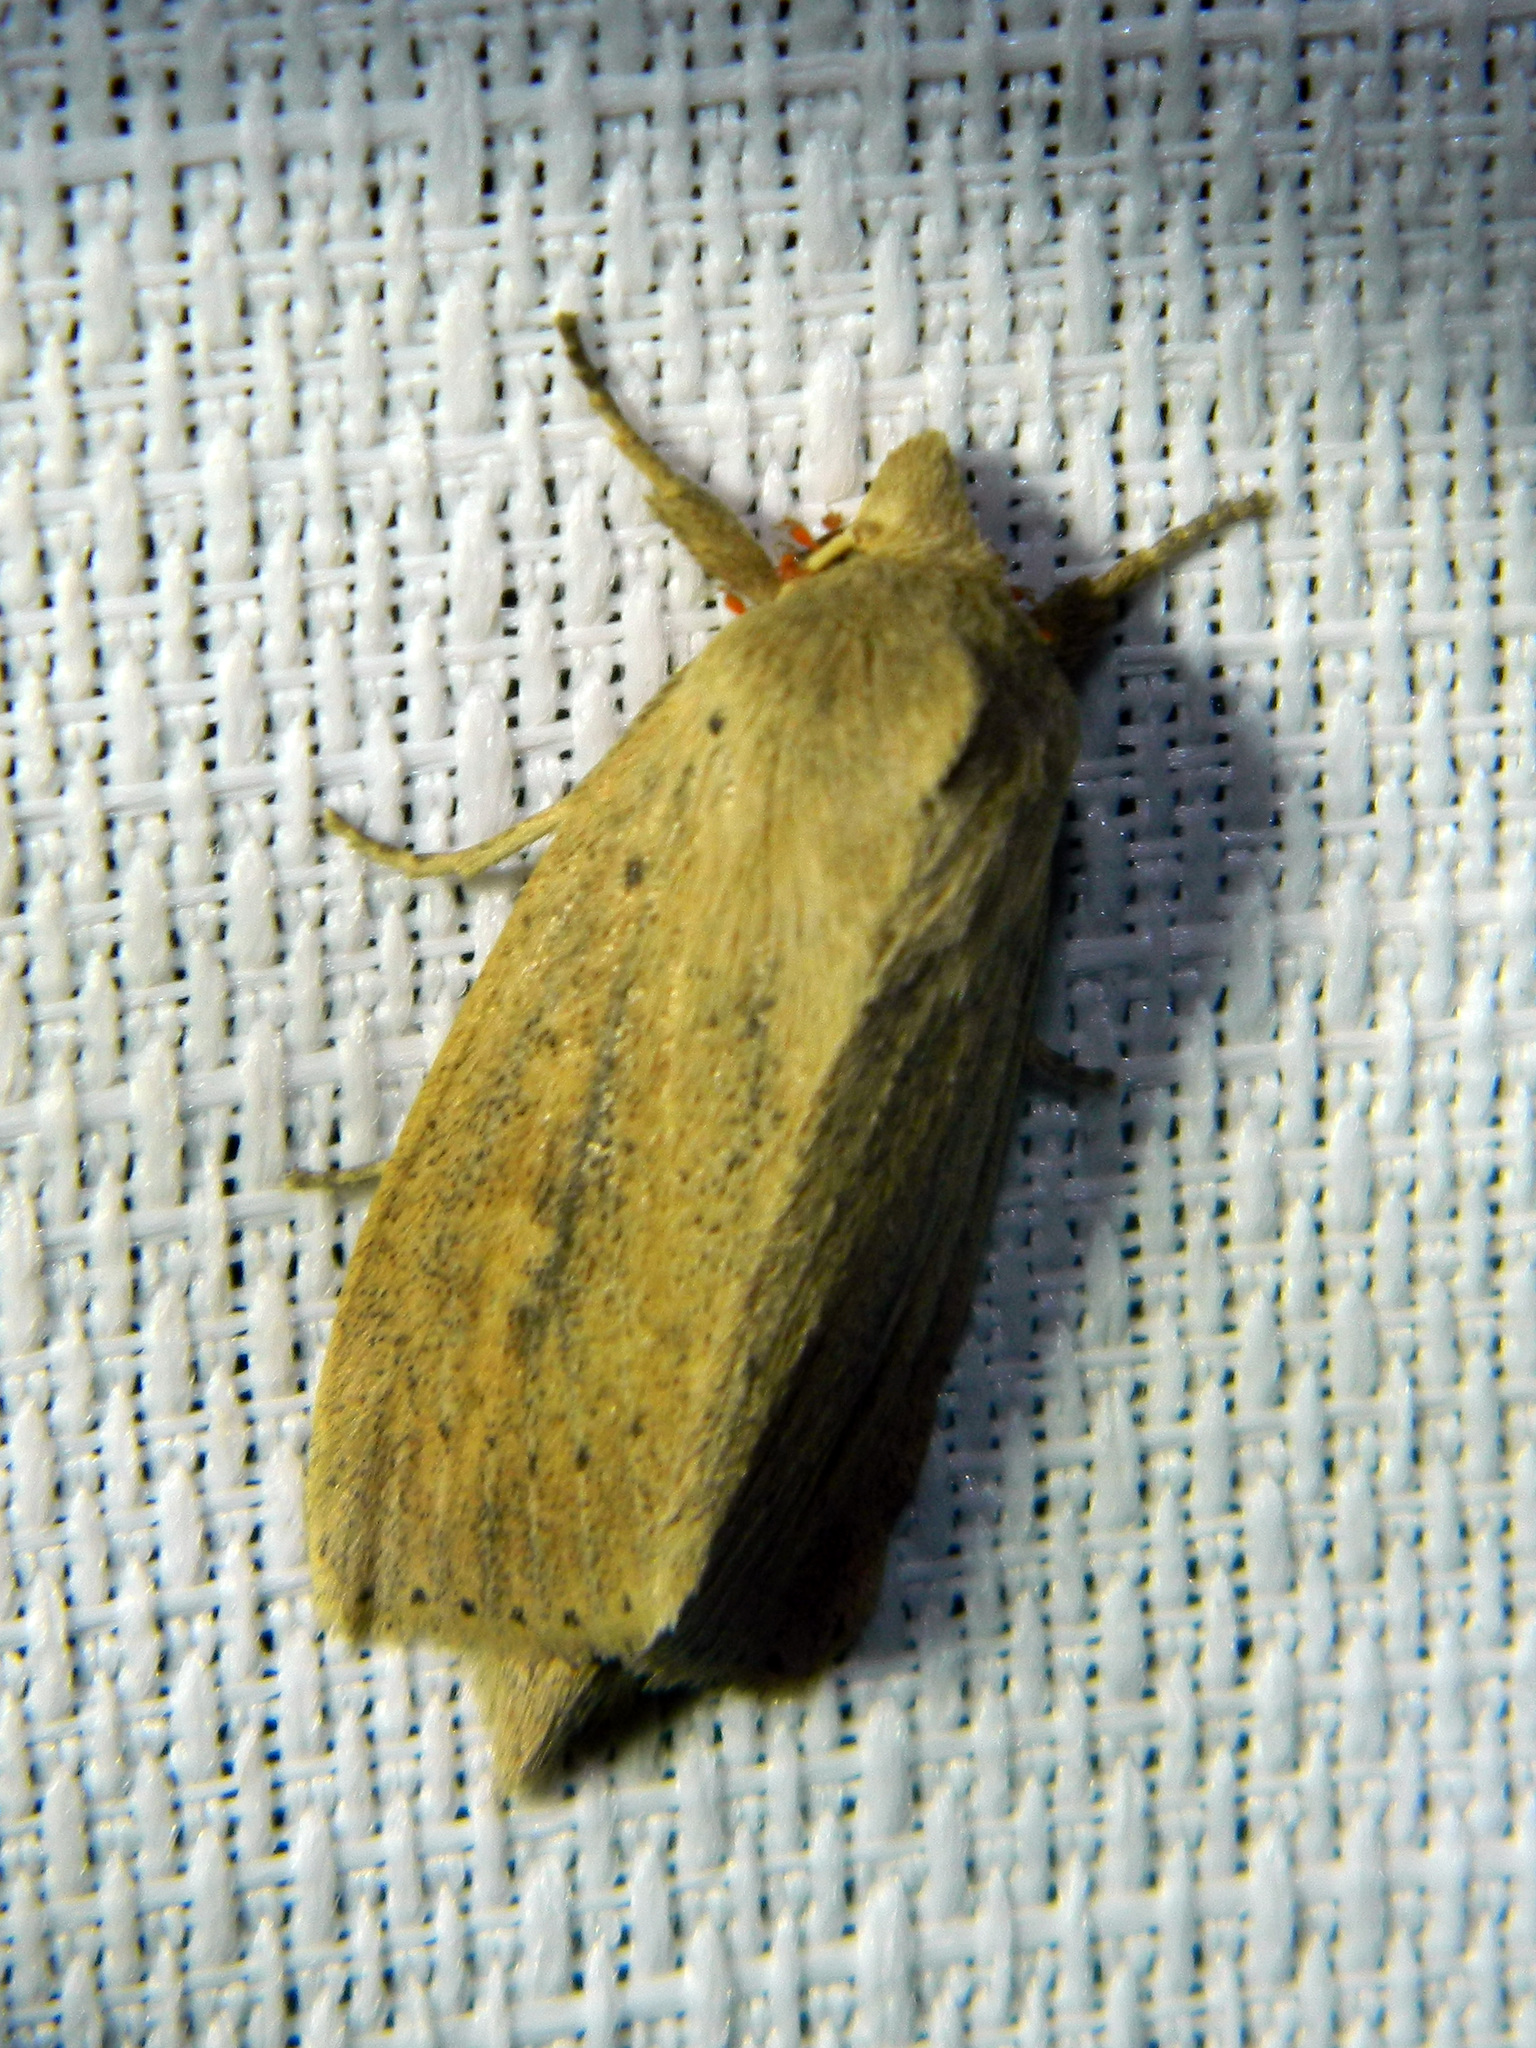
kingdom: Animalia
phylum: Arthropoda
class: Insecta
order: Lepidoptera
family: Noctuidae
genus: Globia
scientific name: Globia oblonga
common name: Oblong sedge borer moth
